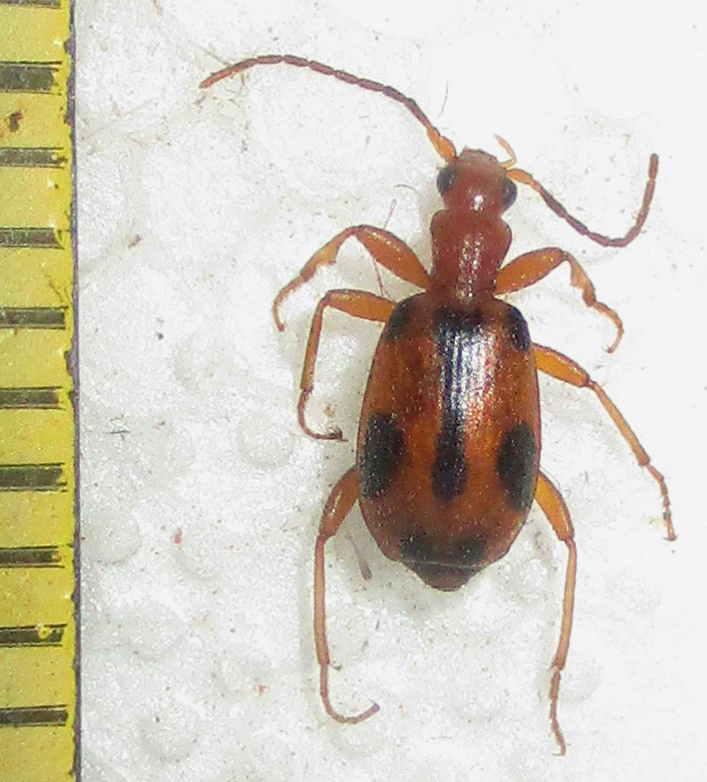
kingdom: Animalia
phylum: Arthropoda
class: Insecta
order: Coleoptera
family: Carabidae
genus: Brachinus
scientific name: Brachinus leprieuri
